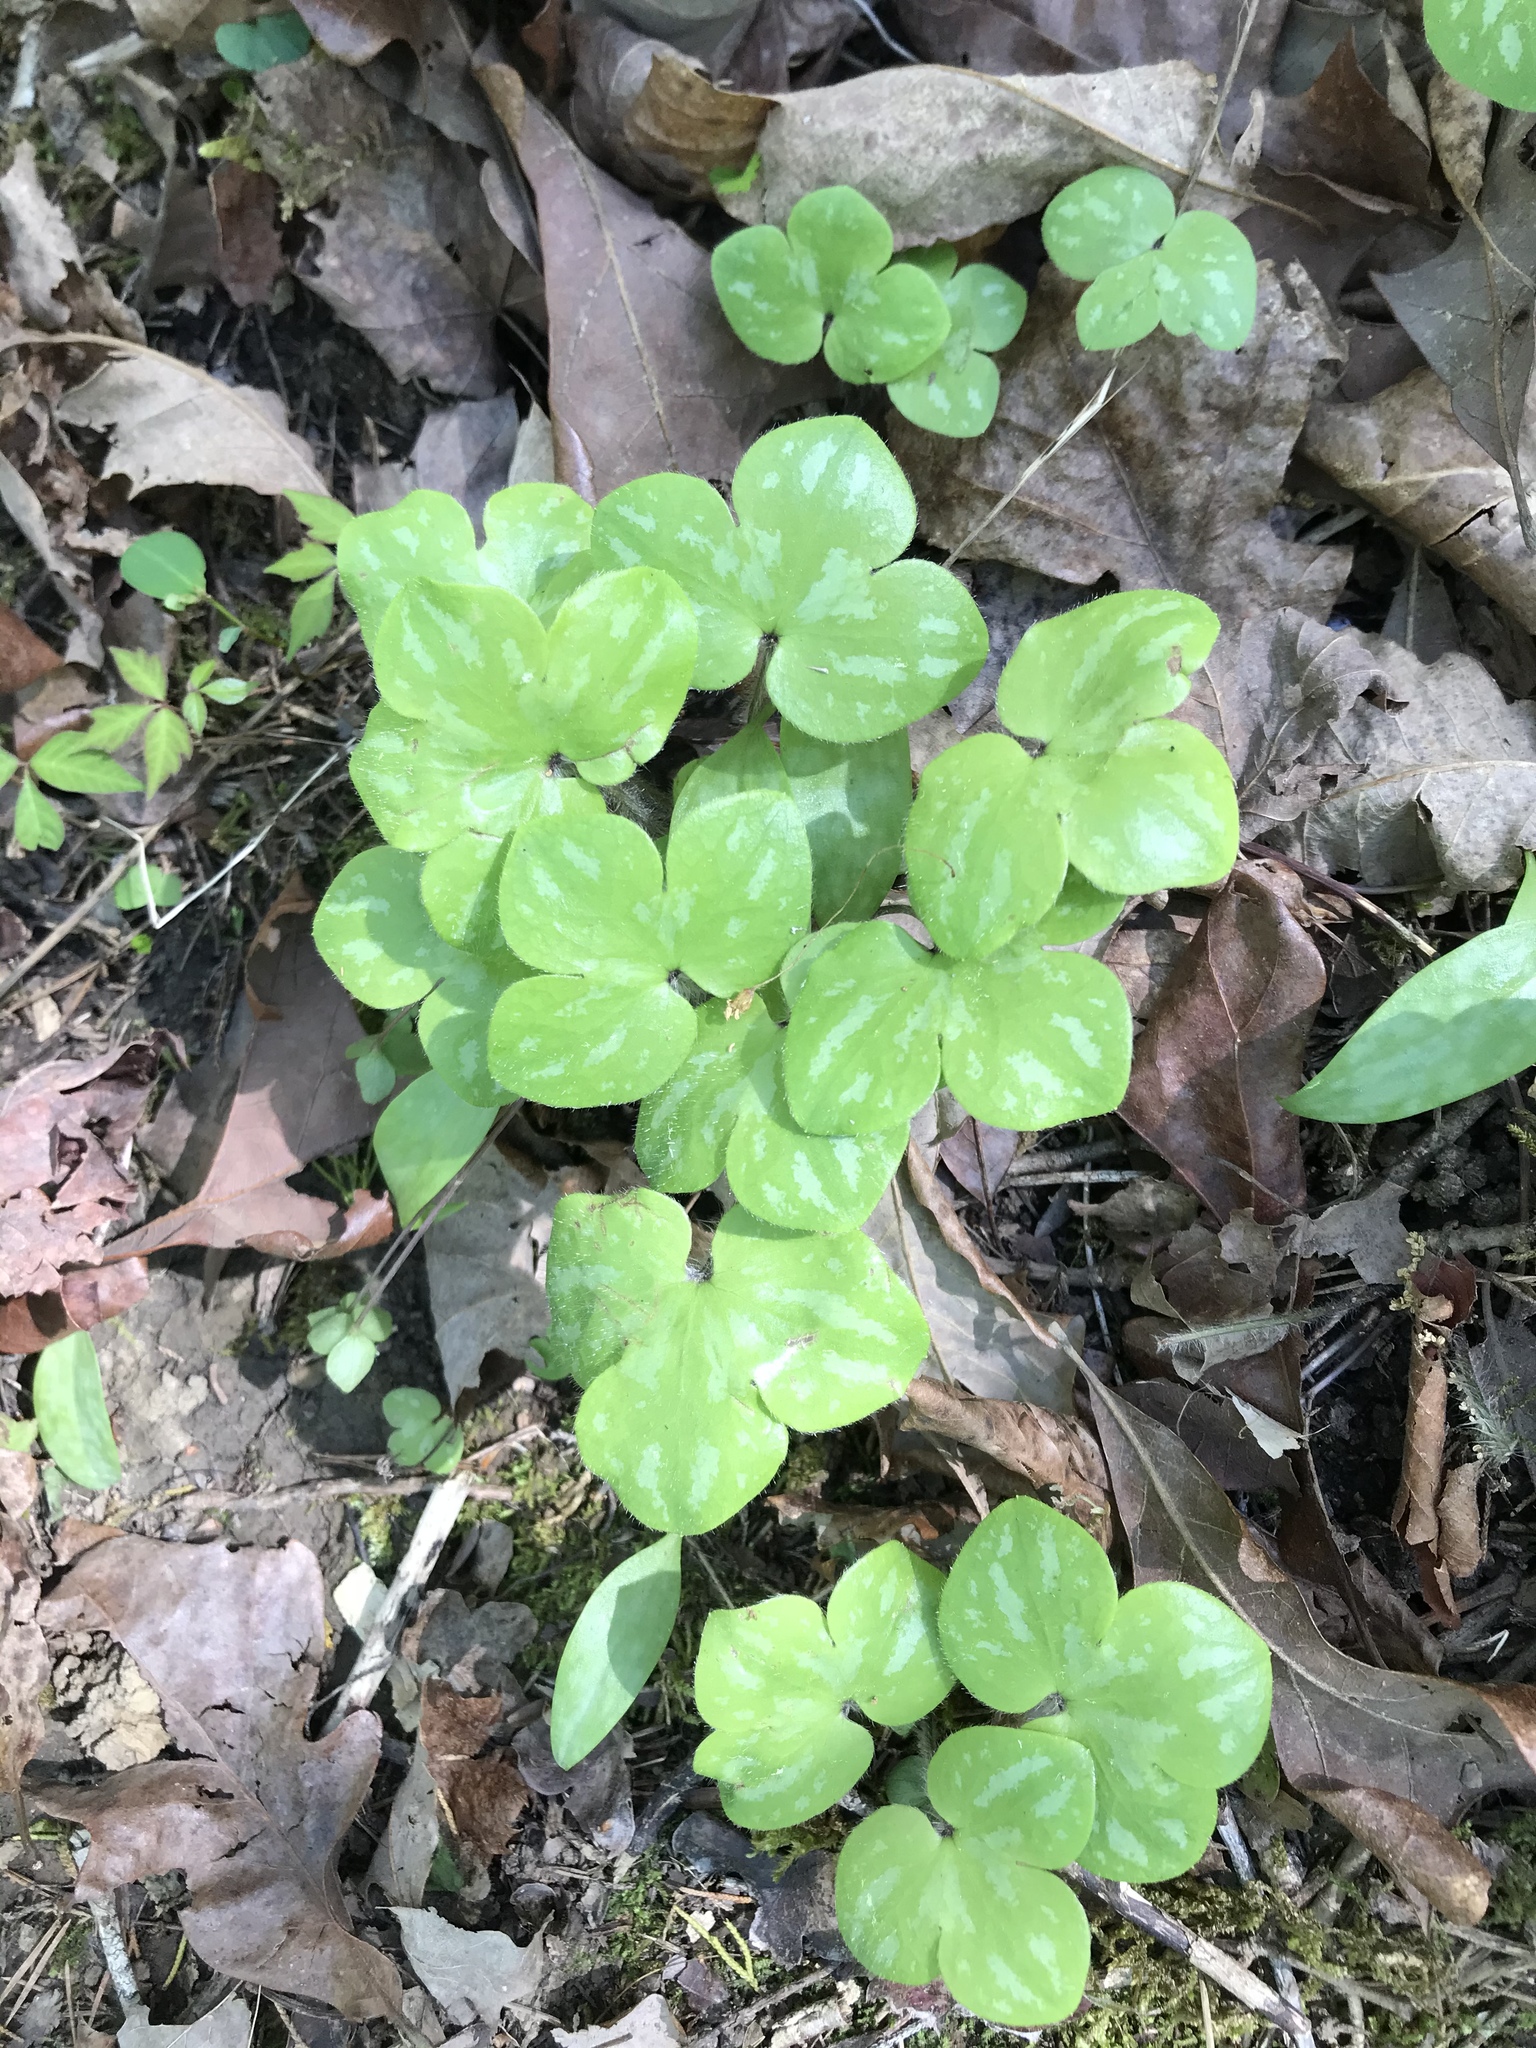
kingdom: Plantae
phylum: Tracheophyta
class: Magnoliopsida
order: Ranunculales
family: Ranunculaceae
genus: Hepatica
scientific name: Hepatica americana
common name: American hepatica
